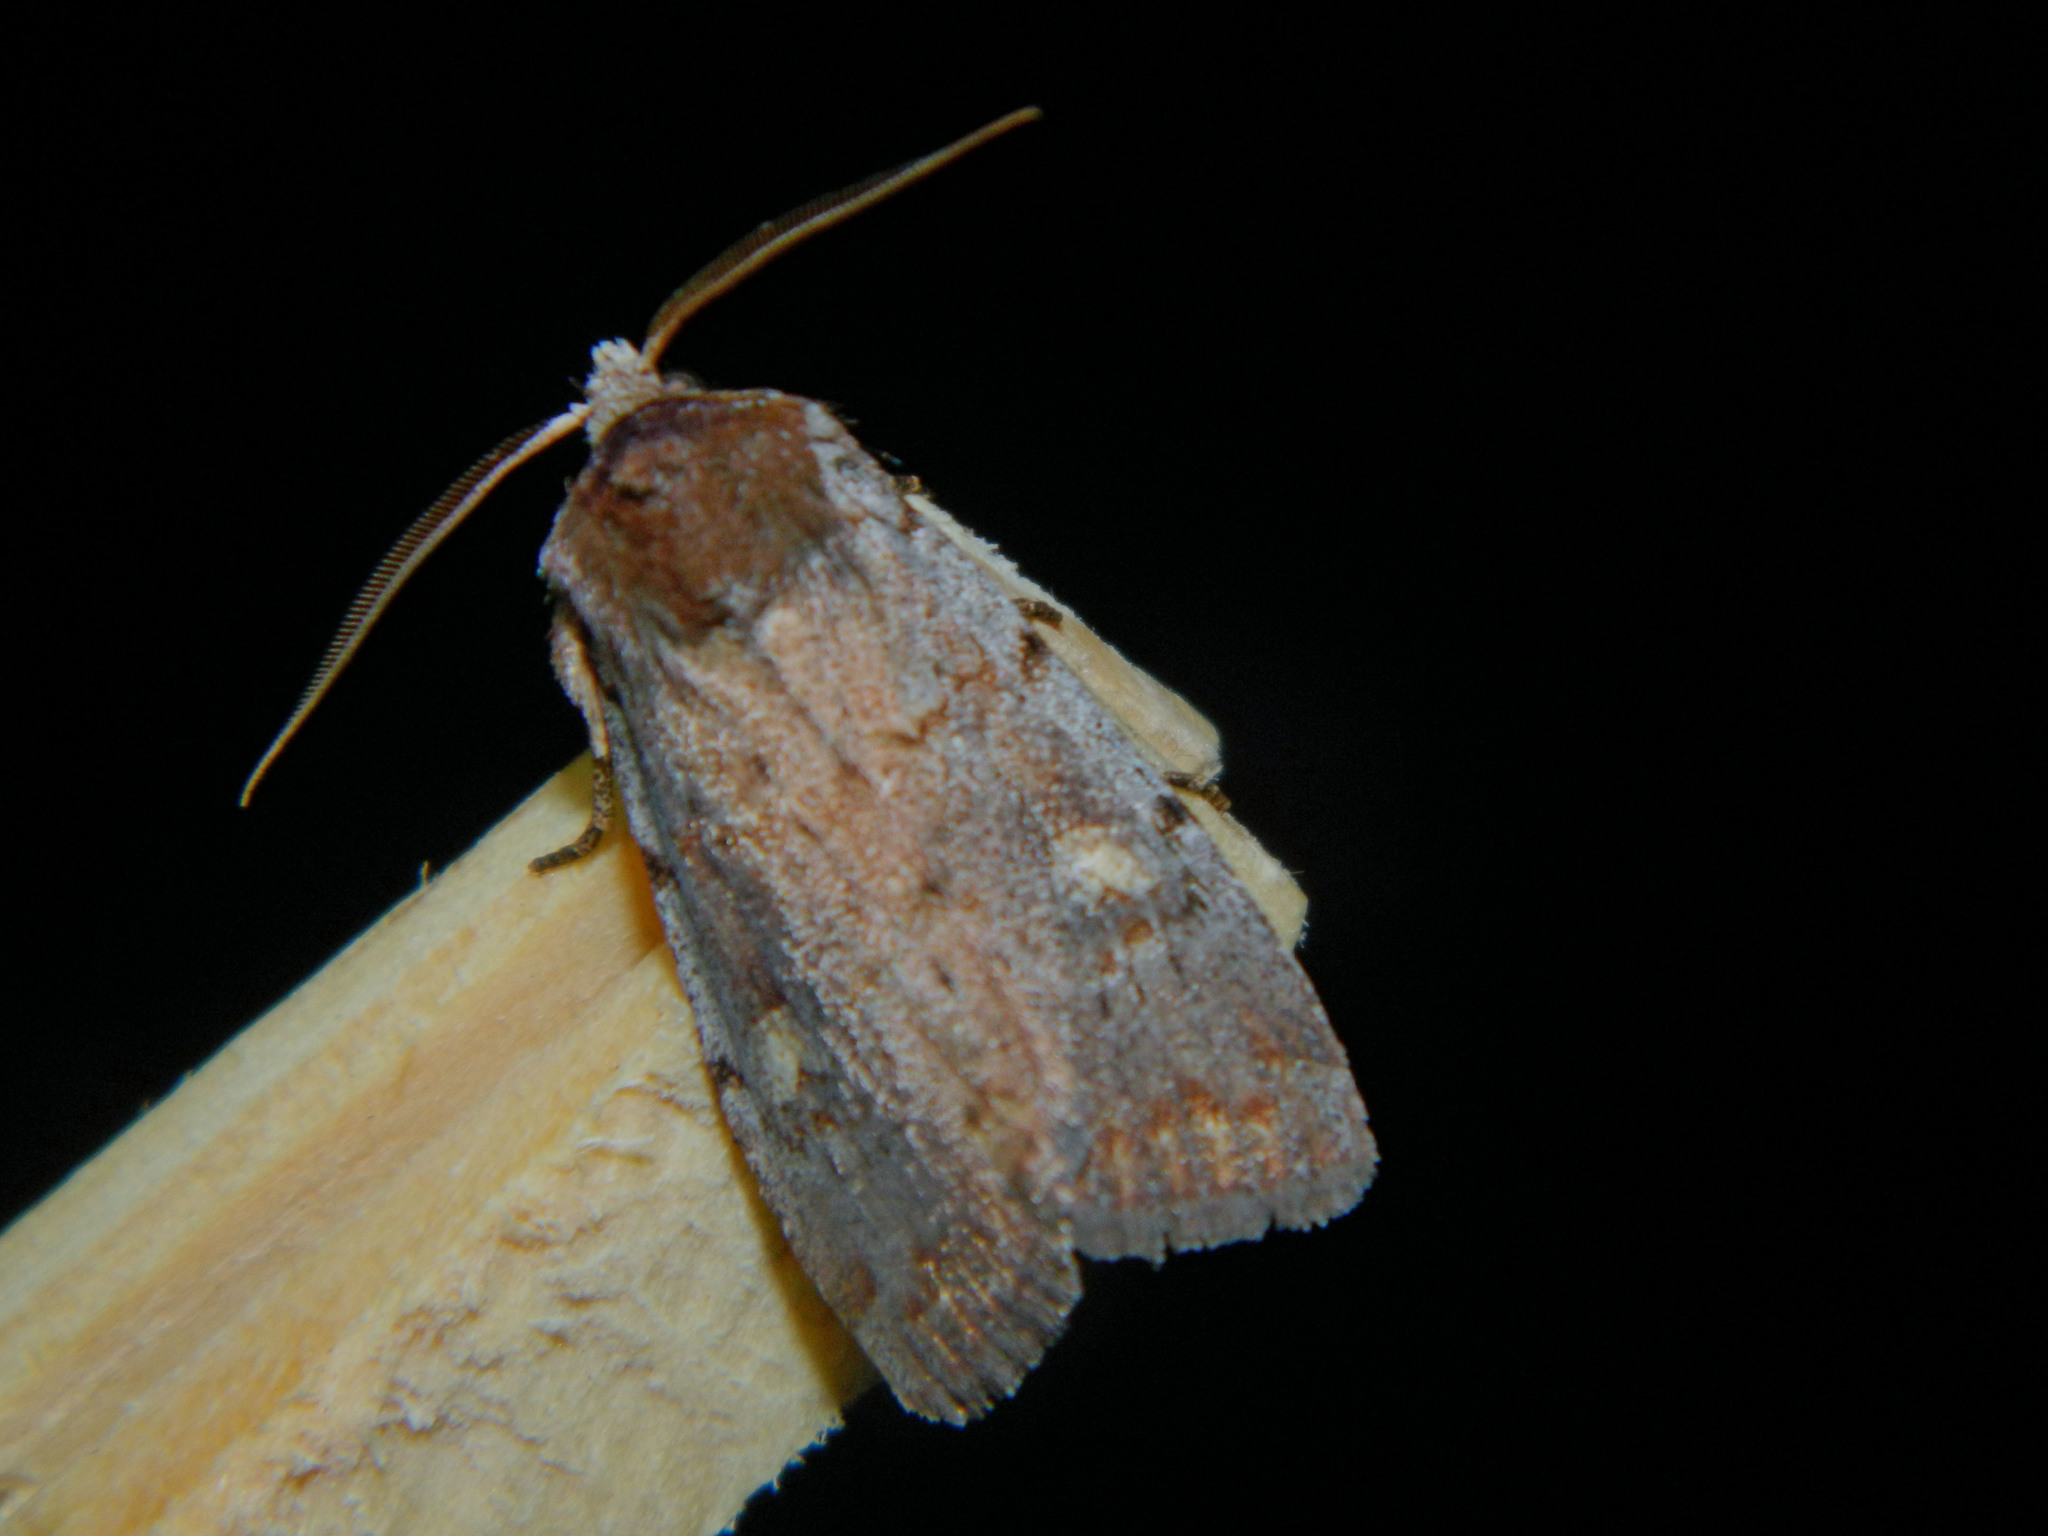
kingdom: Animalia
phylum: Arthropoda
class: Insecta
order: Lepidoptera
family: Noctuidae
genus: Xestia
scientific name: Xestia dilucida
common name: Dull reddish dart
